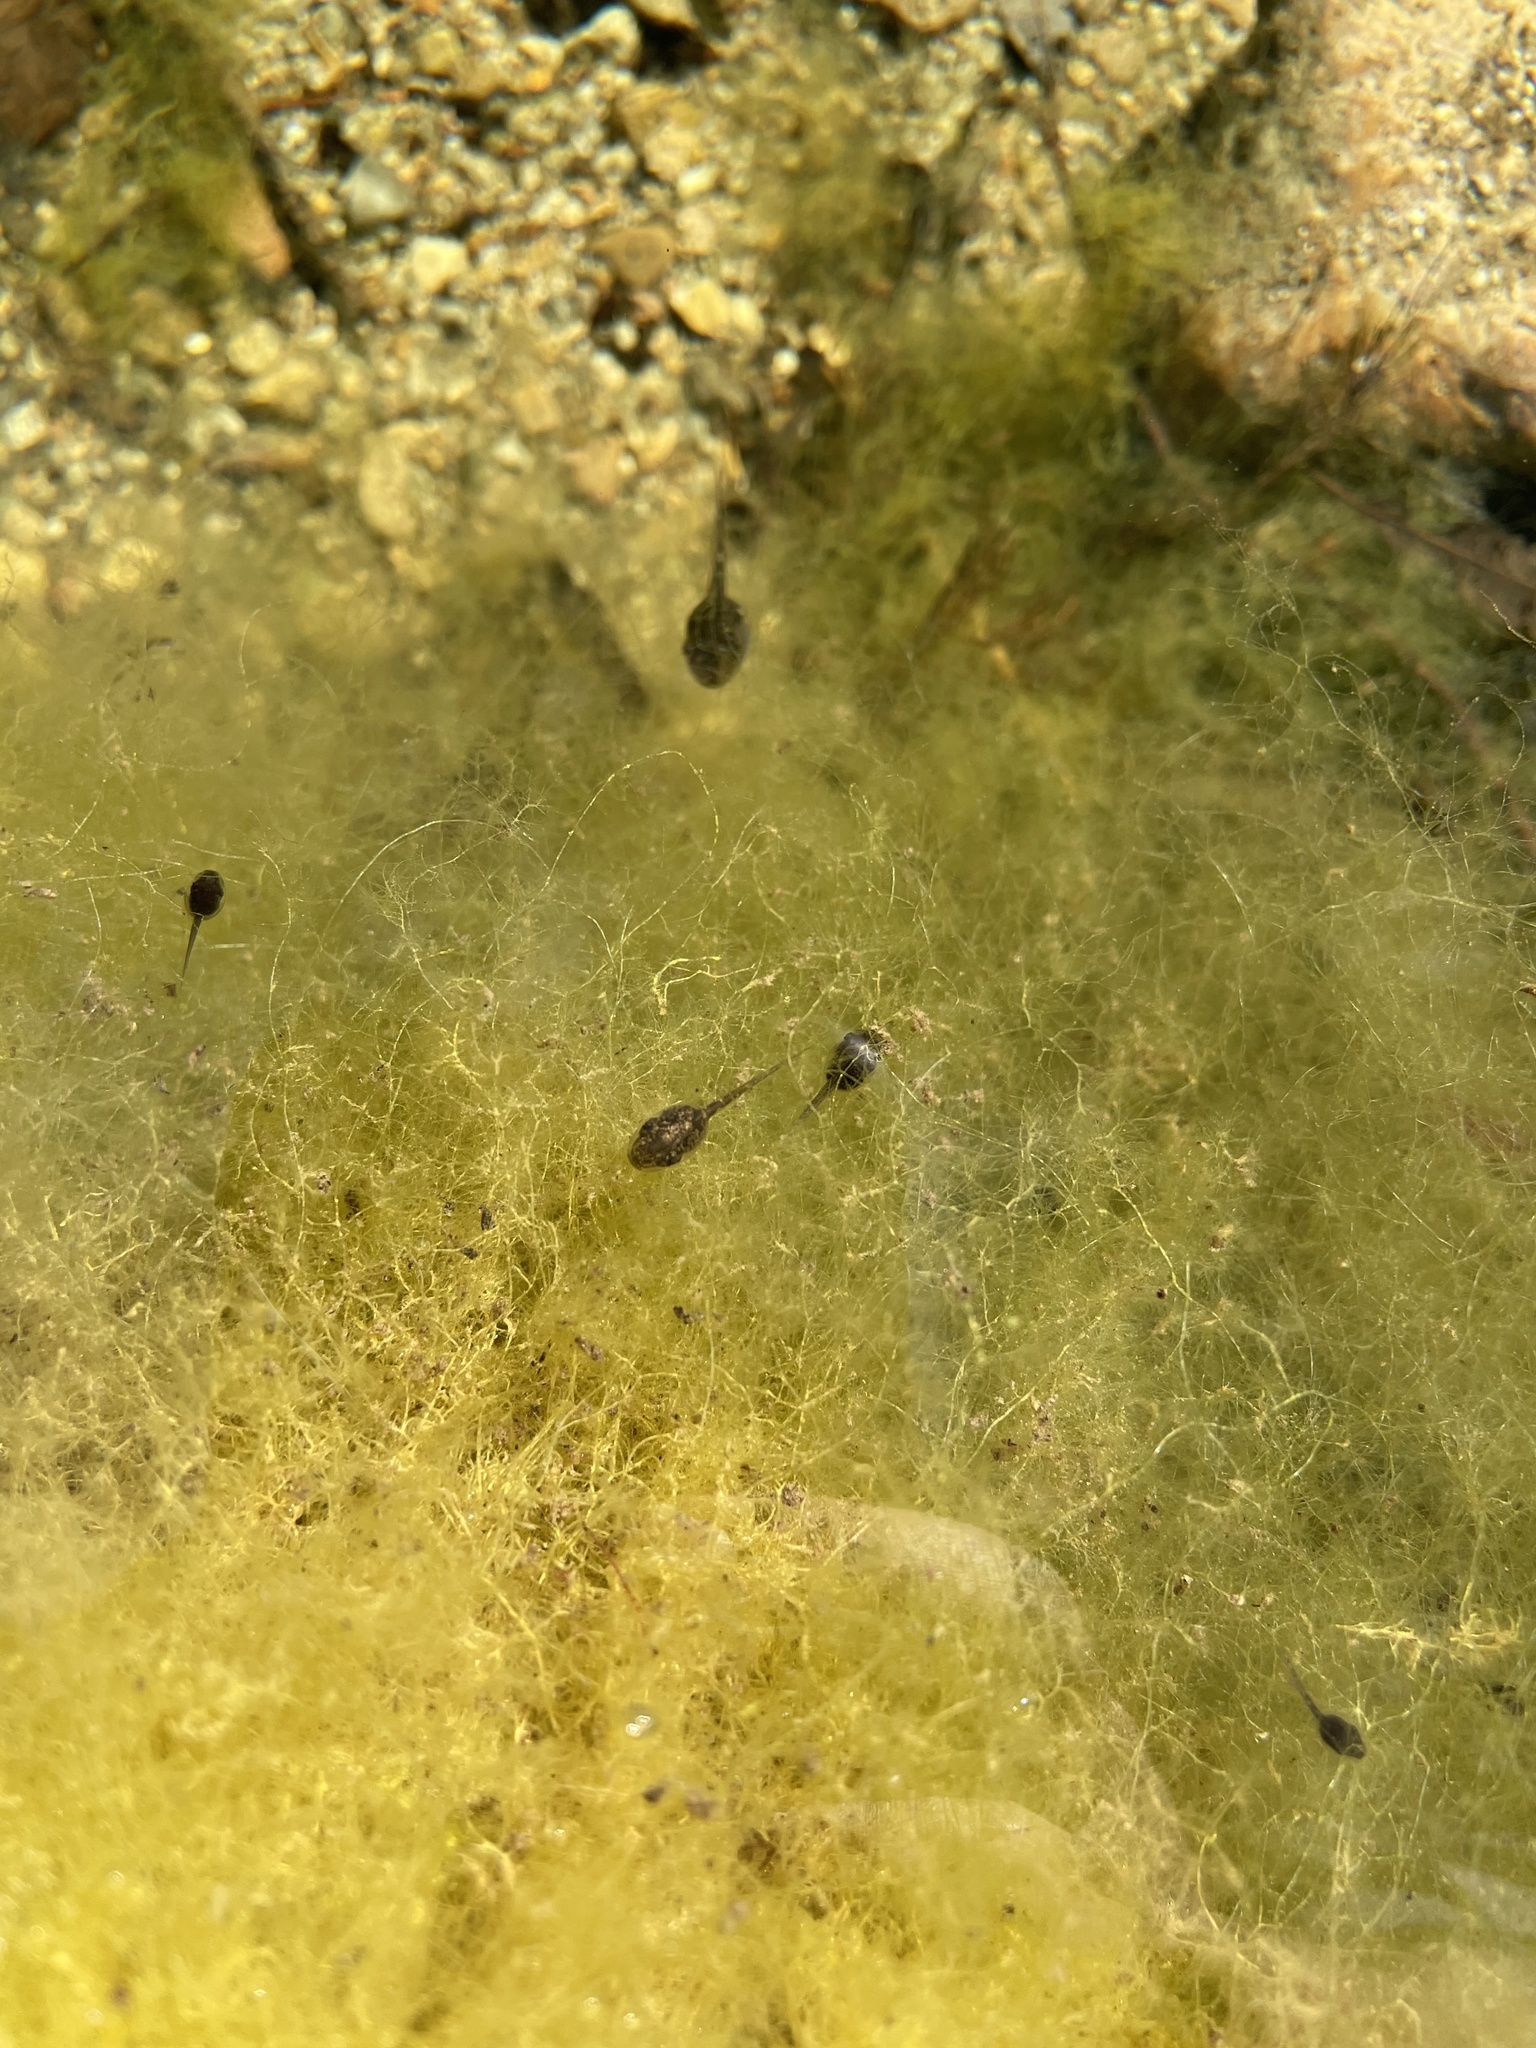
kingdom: Animalia
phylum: Chordata
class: Amphibia
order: Anura
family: Hylidae
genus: Pseudacris
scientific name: Pseudacris regilla
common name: Pacific chorus frog
